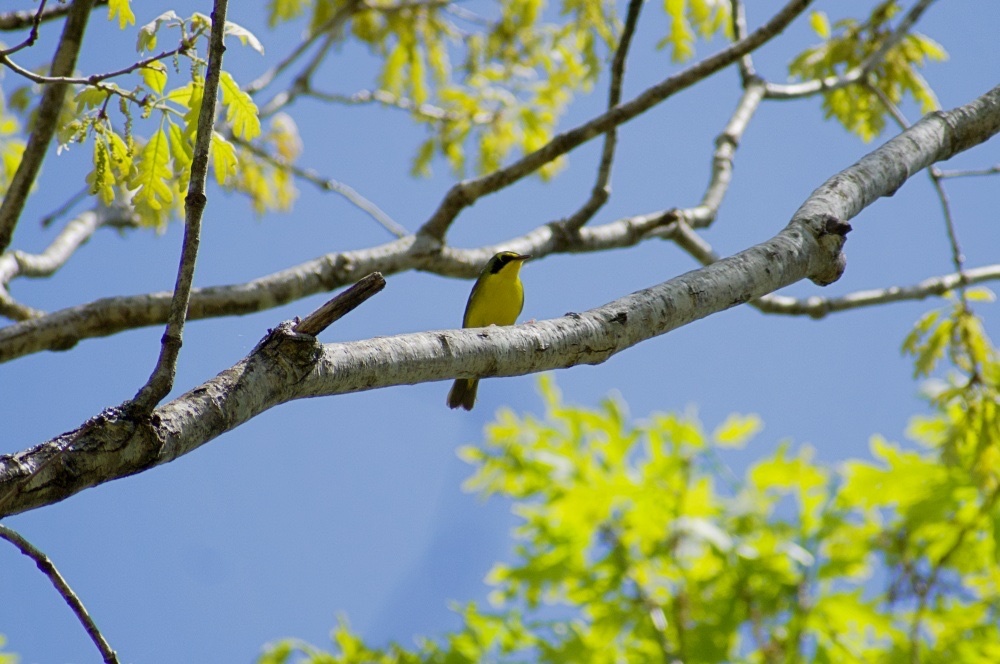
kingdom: Animalia
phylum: Chordata
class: Aves
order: Passeriformes
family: Parulidae
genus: Geothlypis
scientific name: Geothlypis formosa
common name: Kentucky warbler
